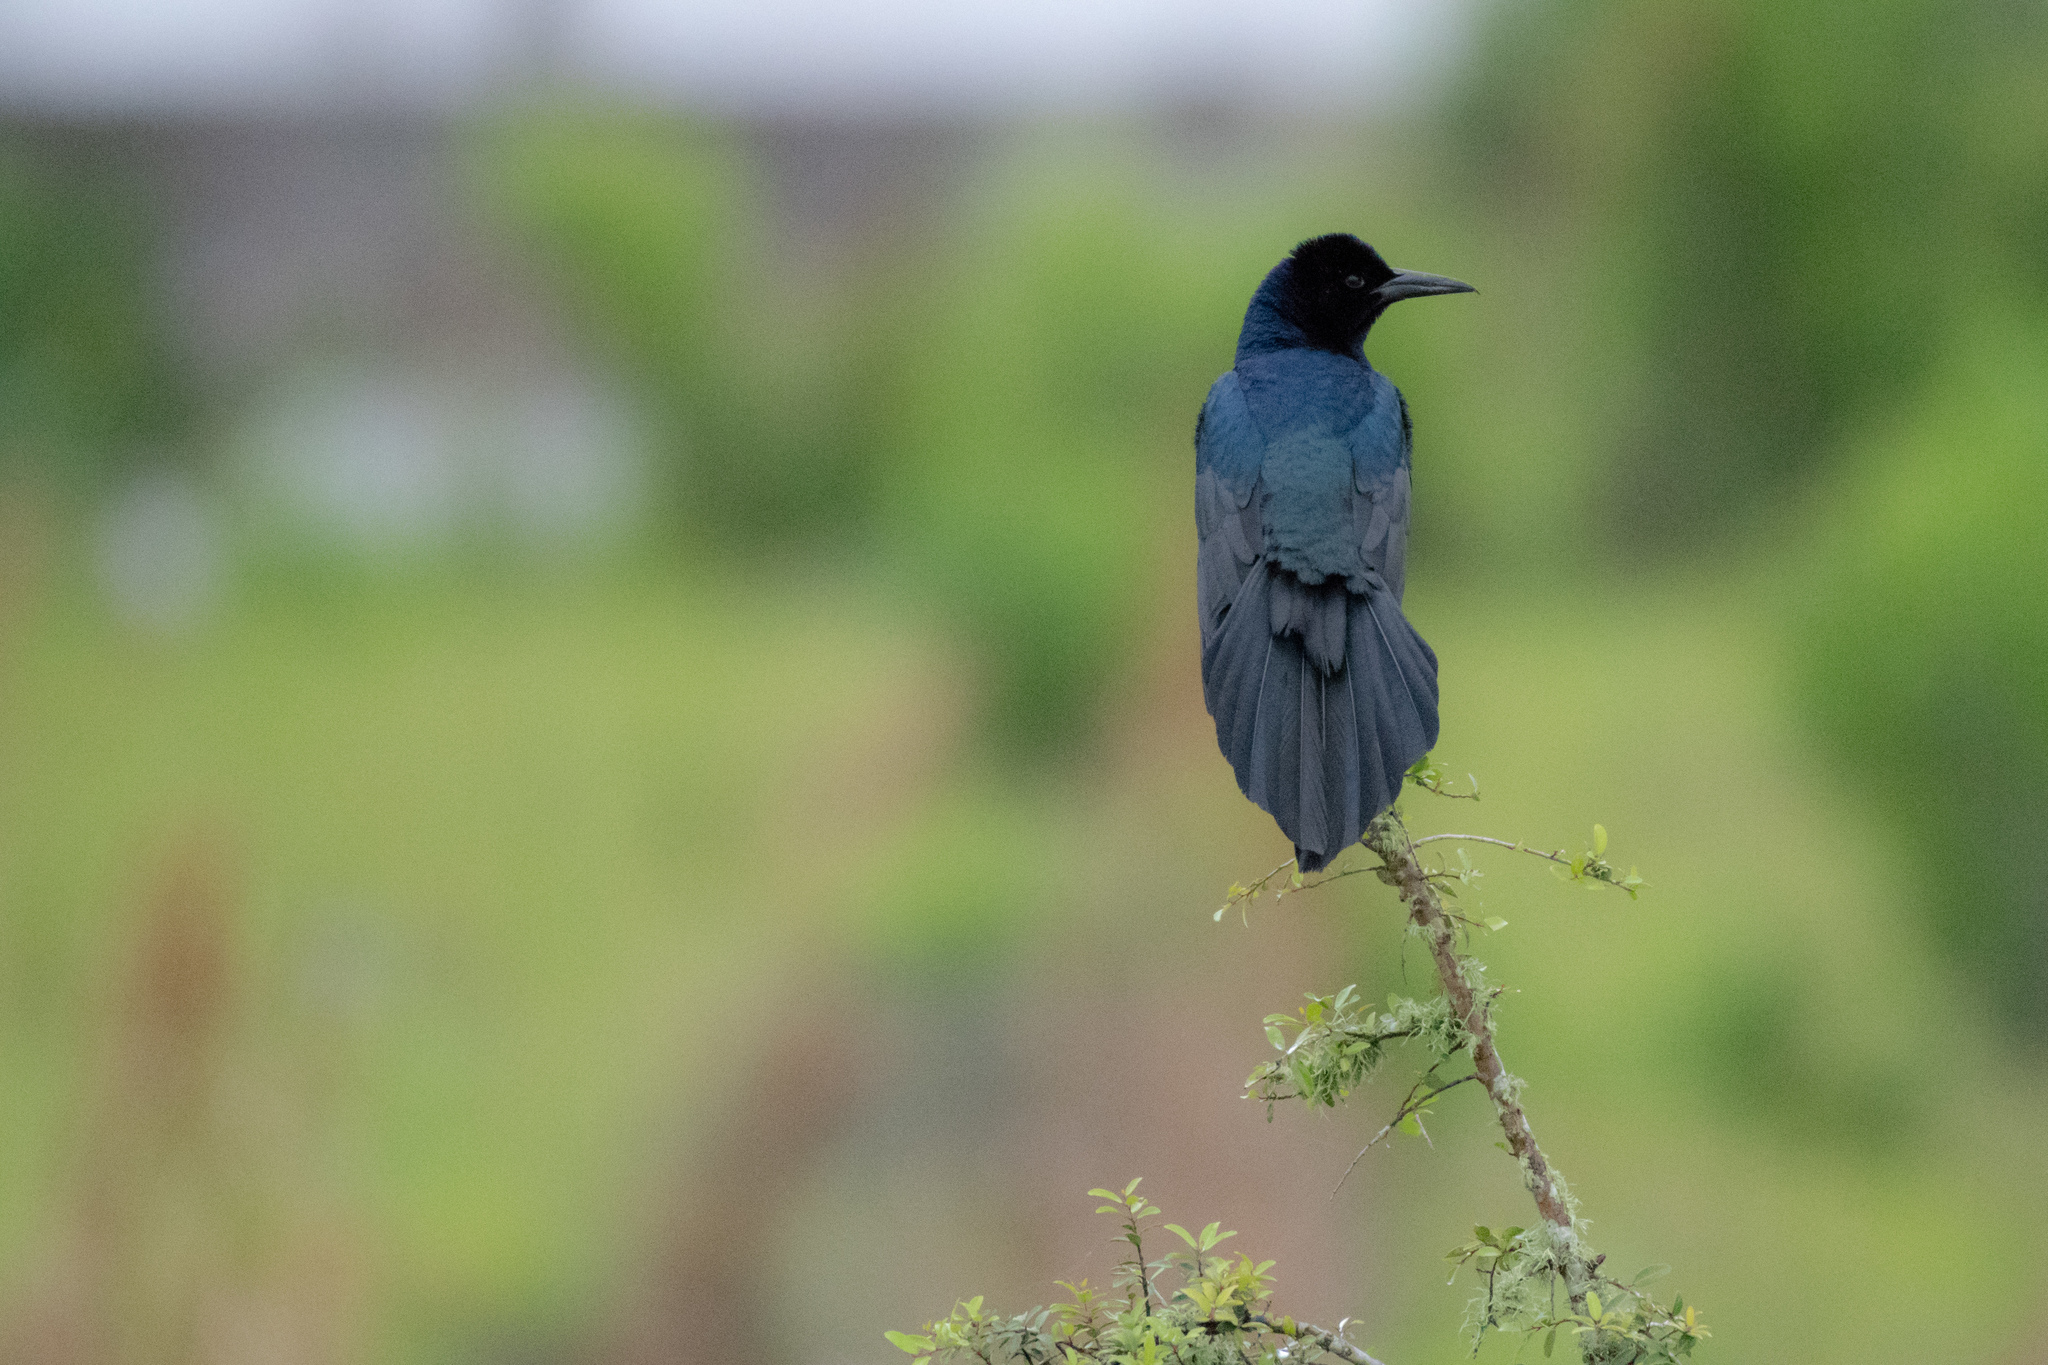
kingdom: Animalia
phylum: Chordata
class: Aves
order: Passeriformes
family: Icteridae
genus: Quiscalus
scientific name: Quiscalus major
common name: Boat-tailed grackle
